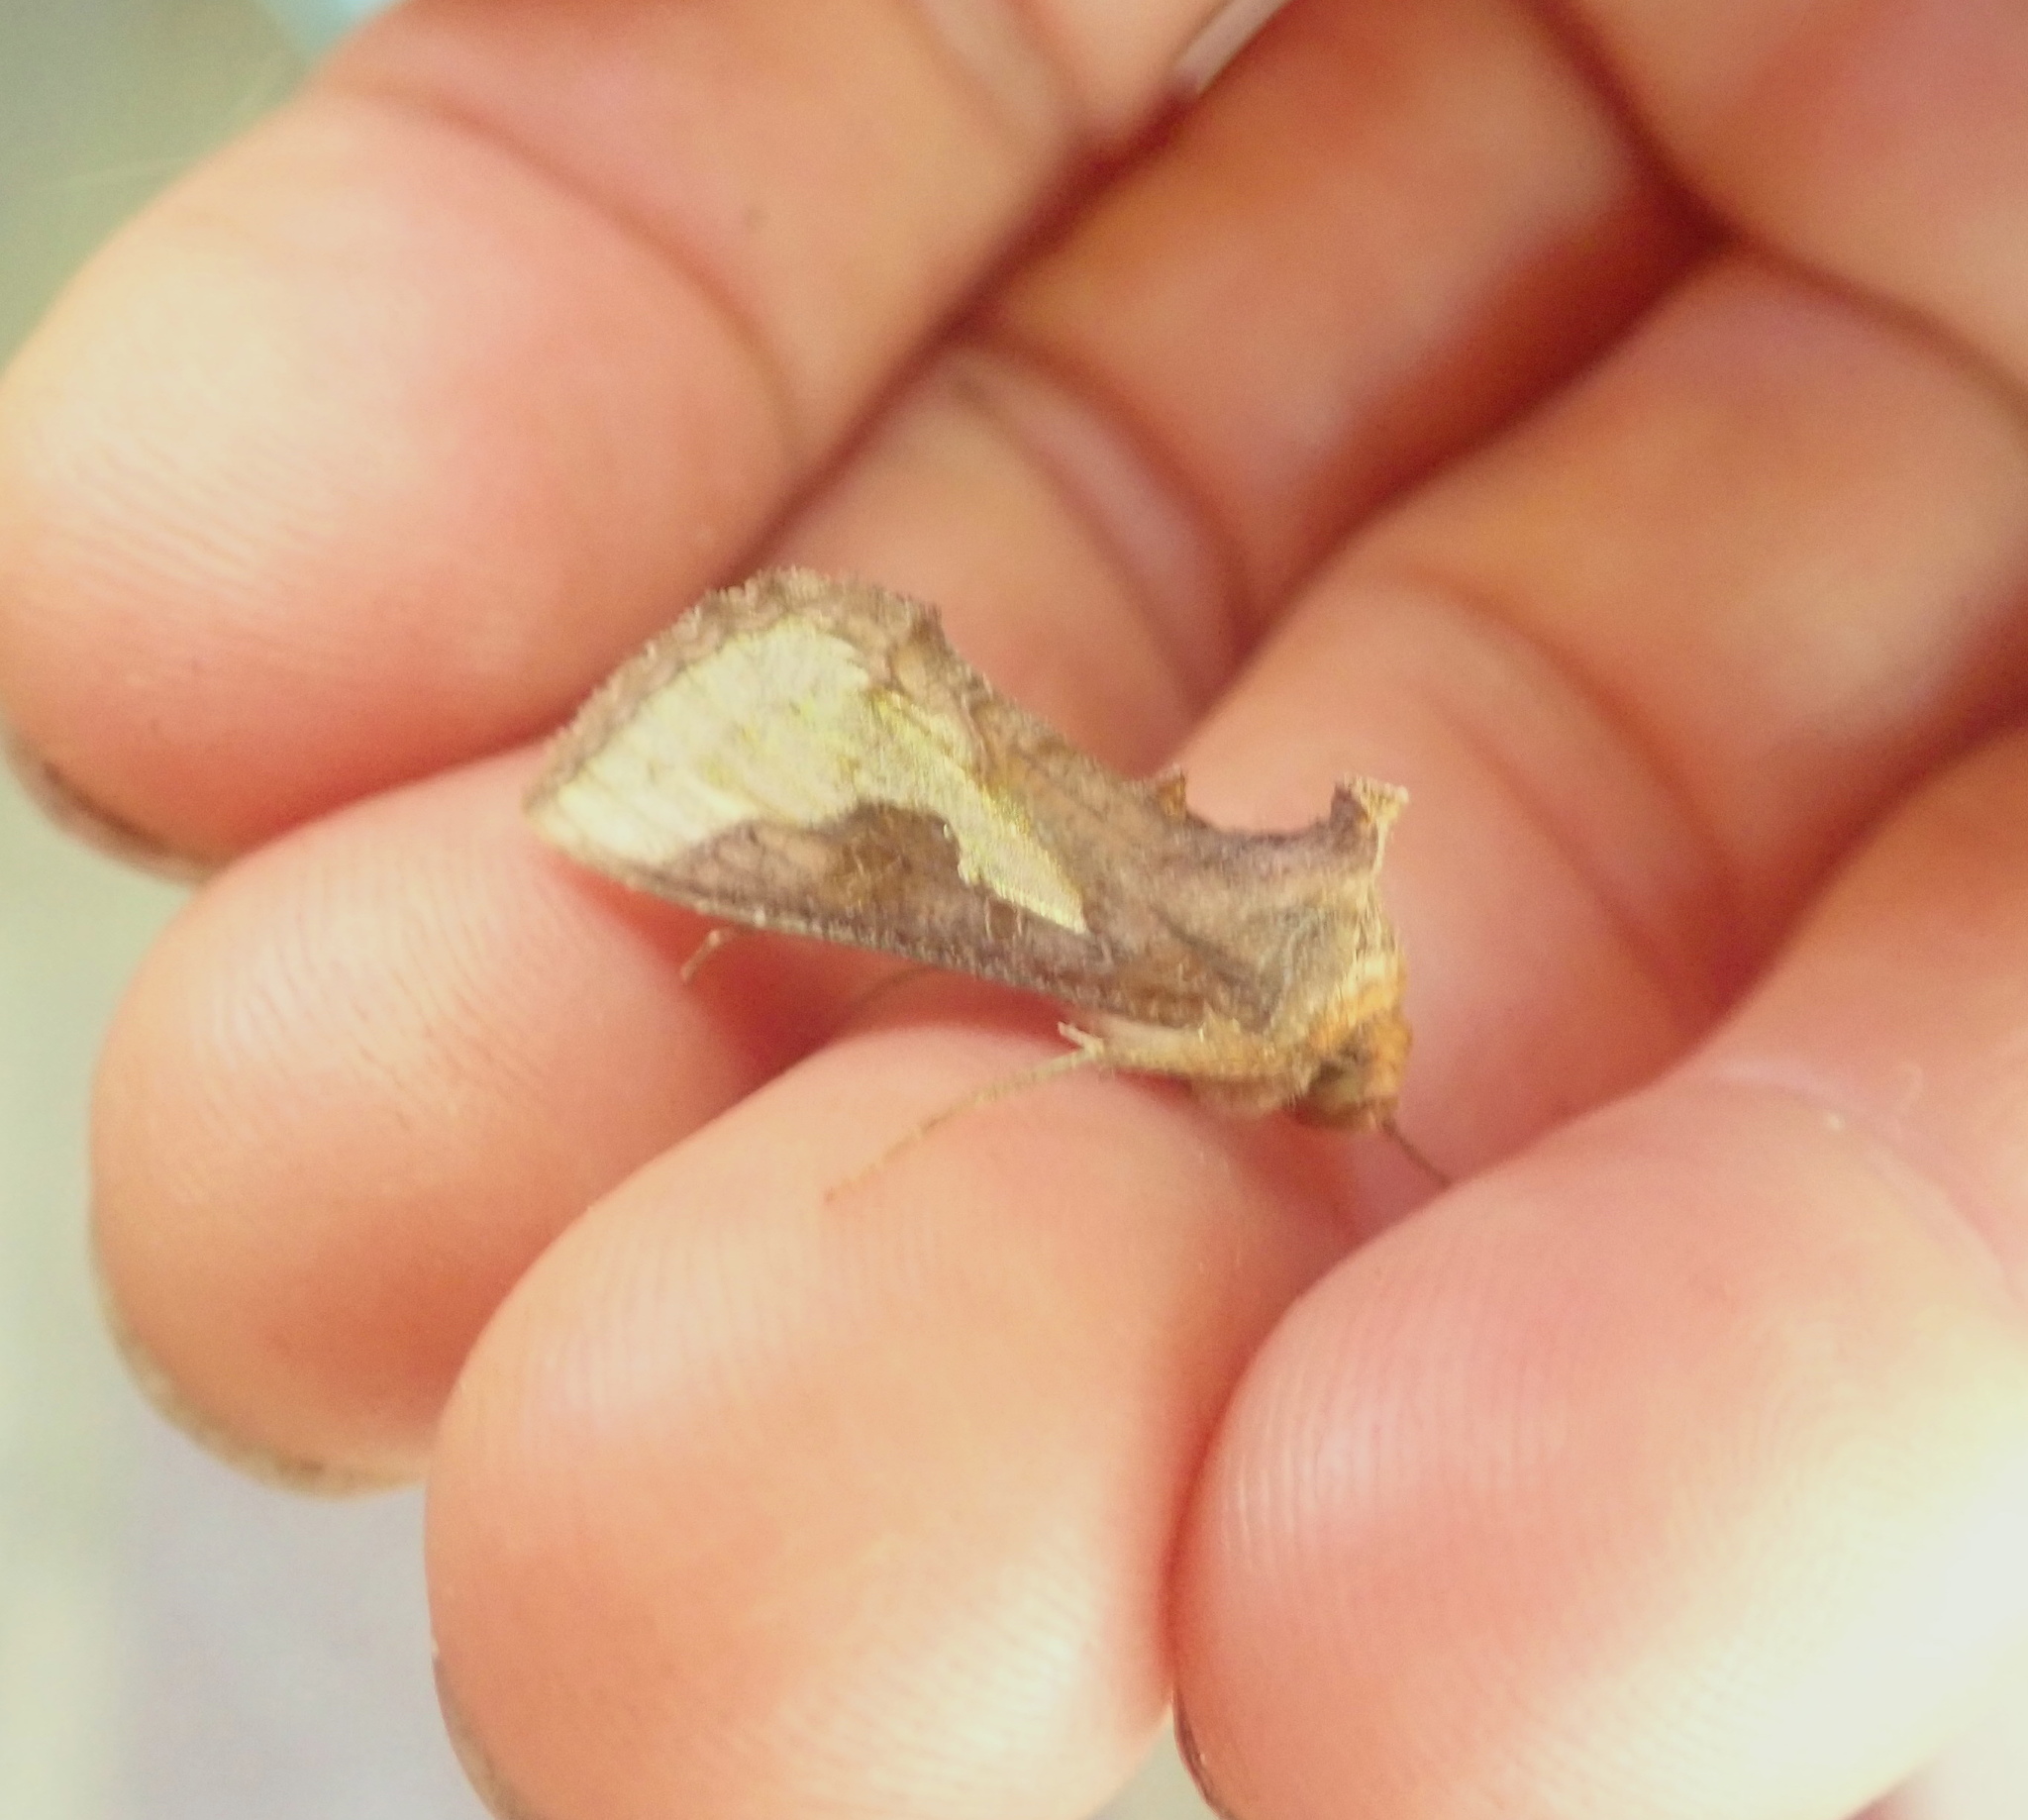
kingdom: Animalia
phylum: Arthropoda
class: Insecta
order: Lepidoptera
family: Noctuidae
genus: Thysanoplusia
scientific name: Thysanoplusia orichalcea
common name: Slender burnished brass, golden plusia
